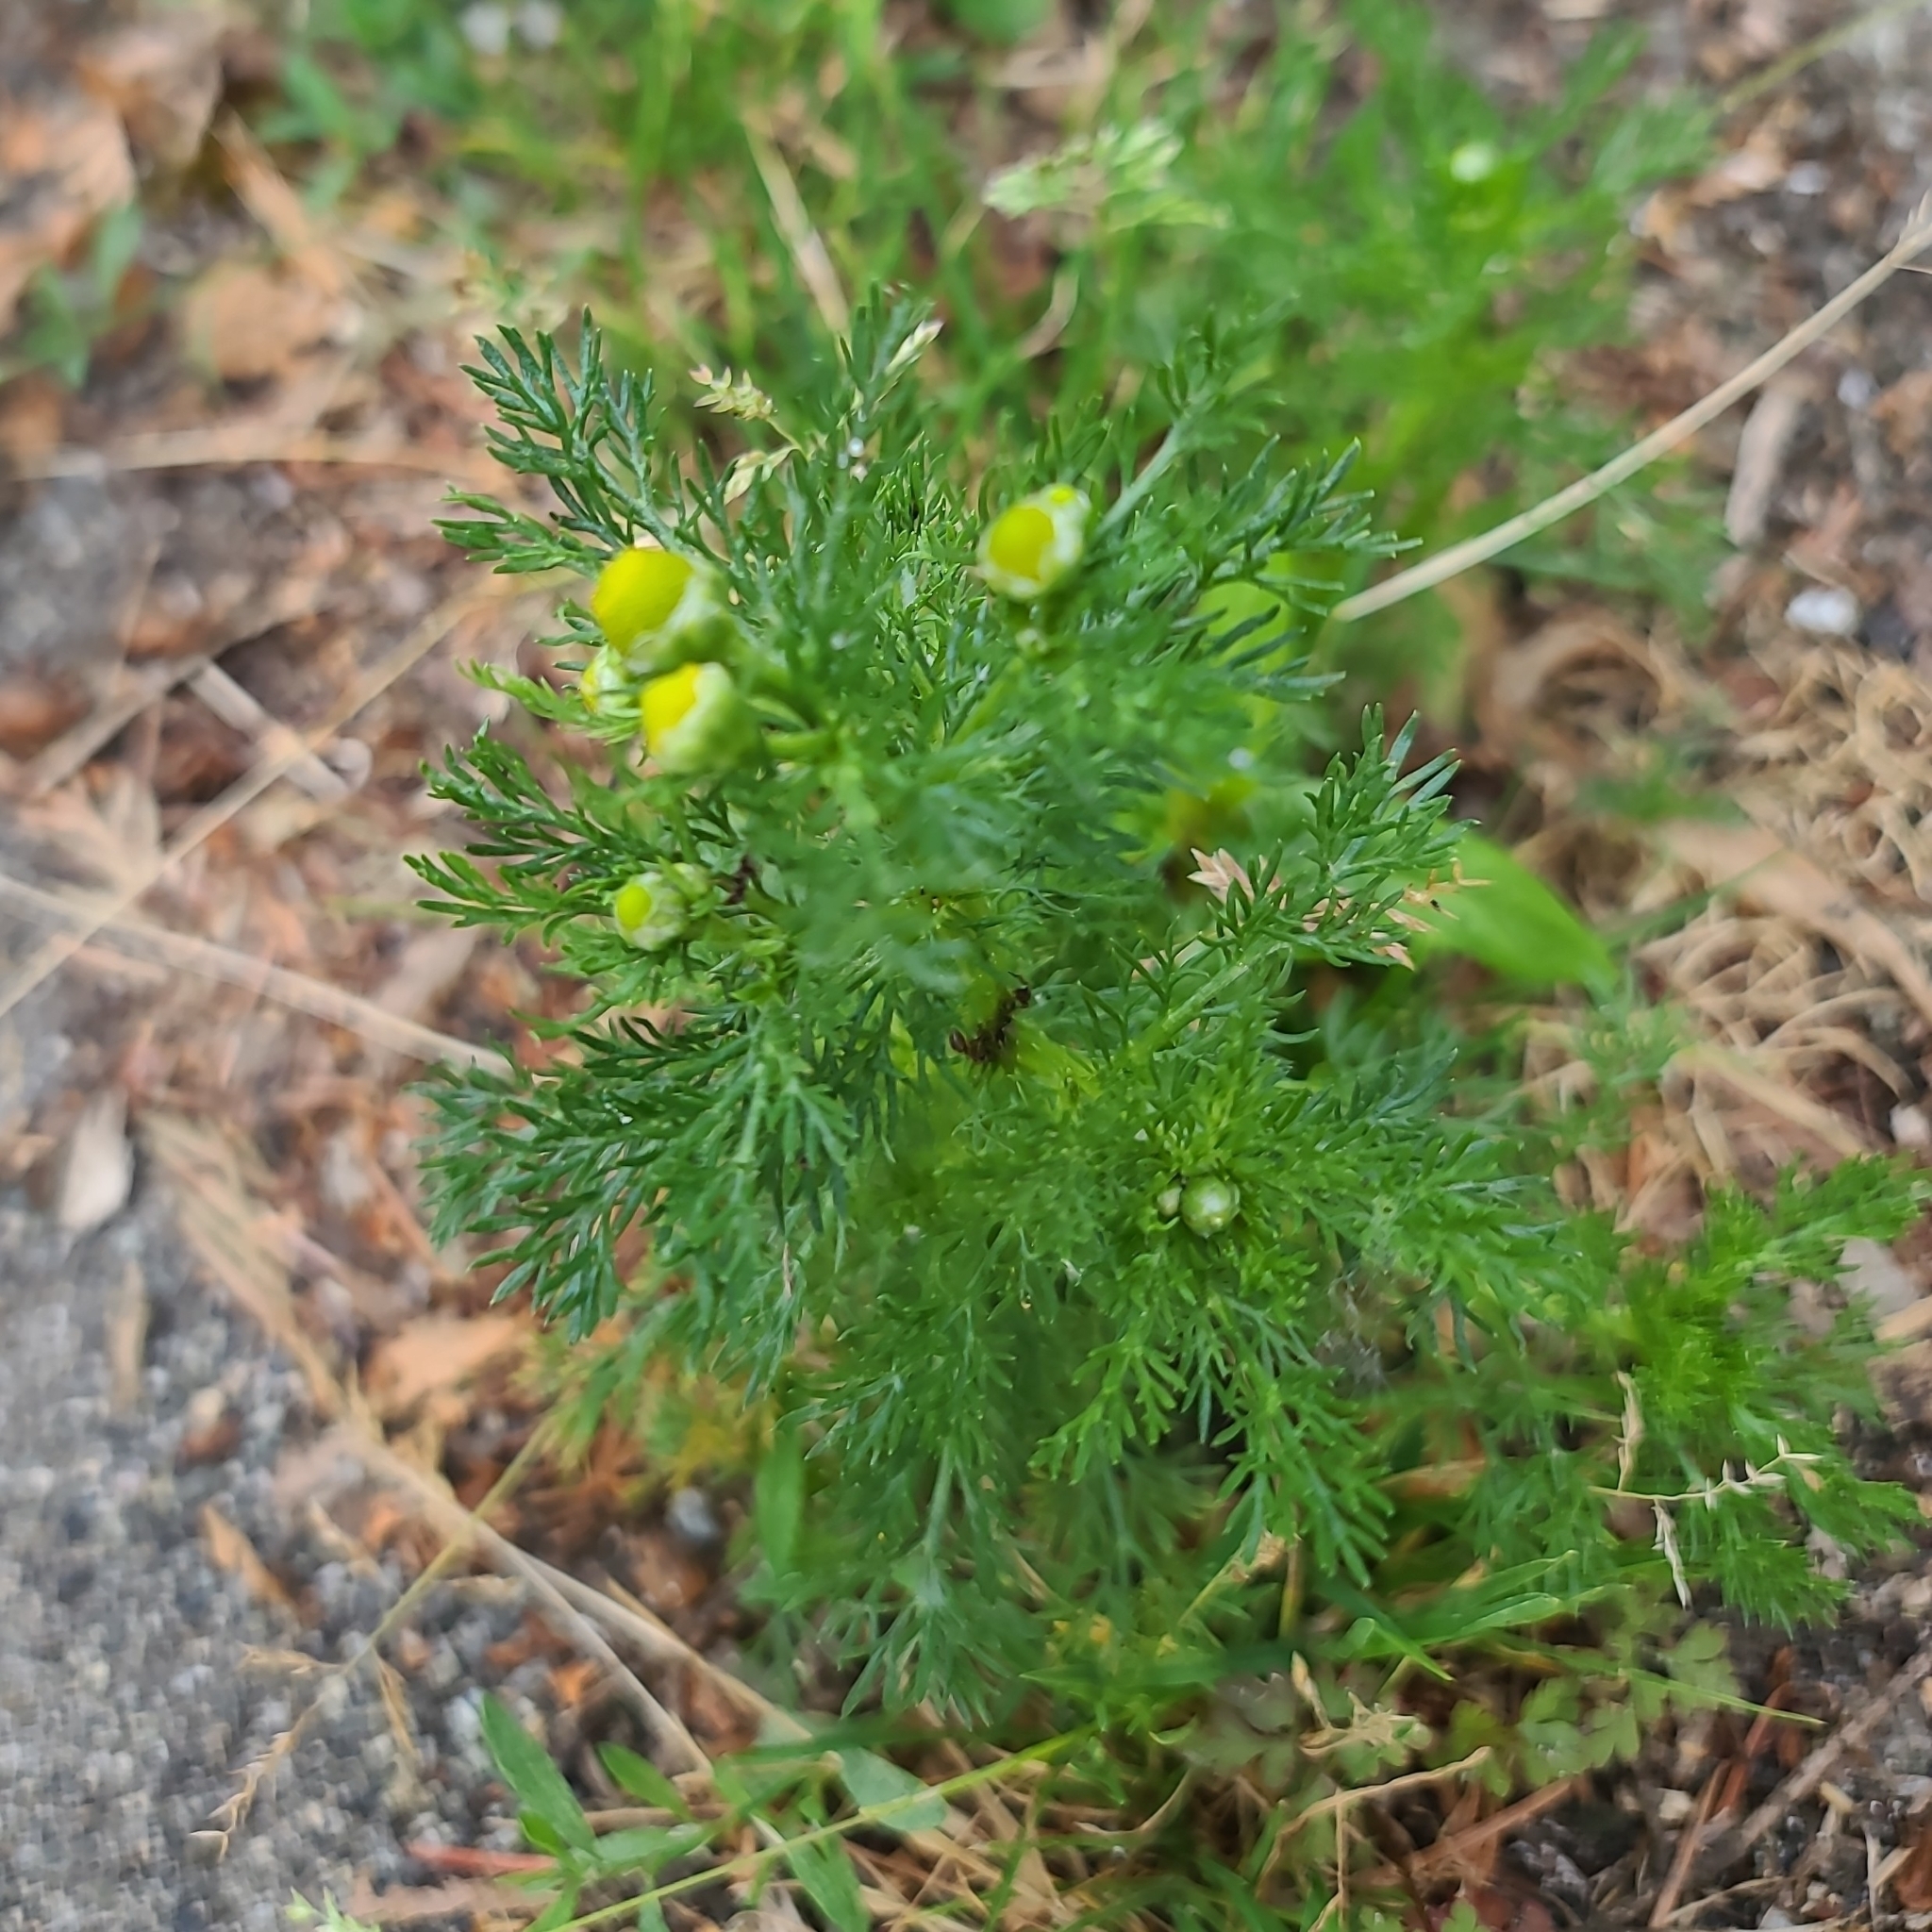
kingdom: Plantae
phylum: Tracheophyta
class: Magnoliopsida
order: Asterales
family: Asteraceae
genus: Matricaria
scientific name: Matricaria discoidea
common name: Disc mayweed
